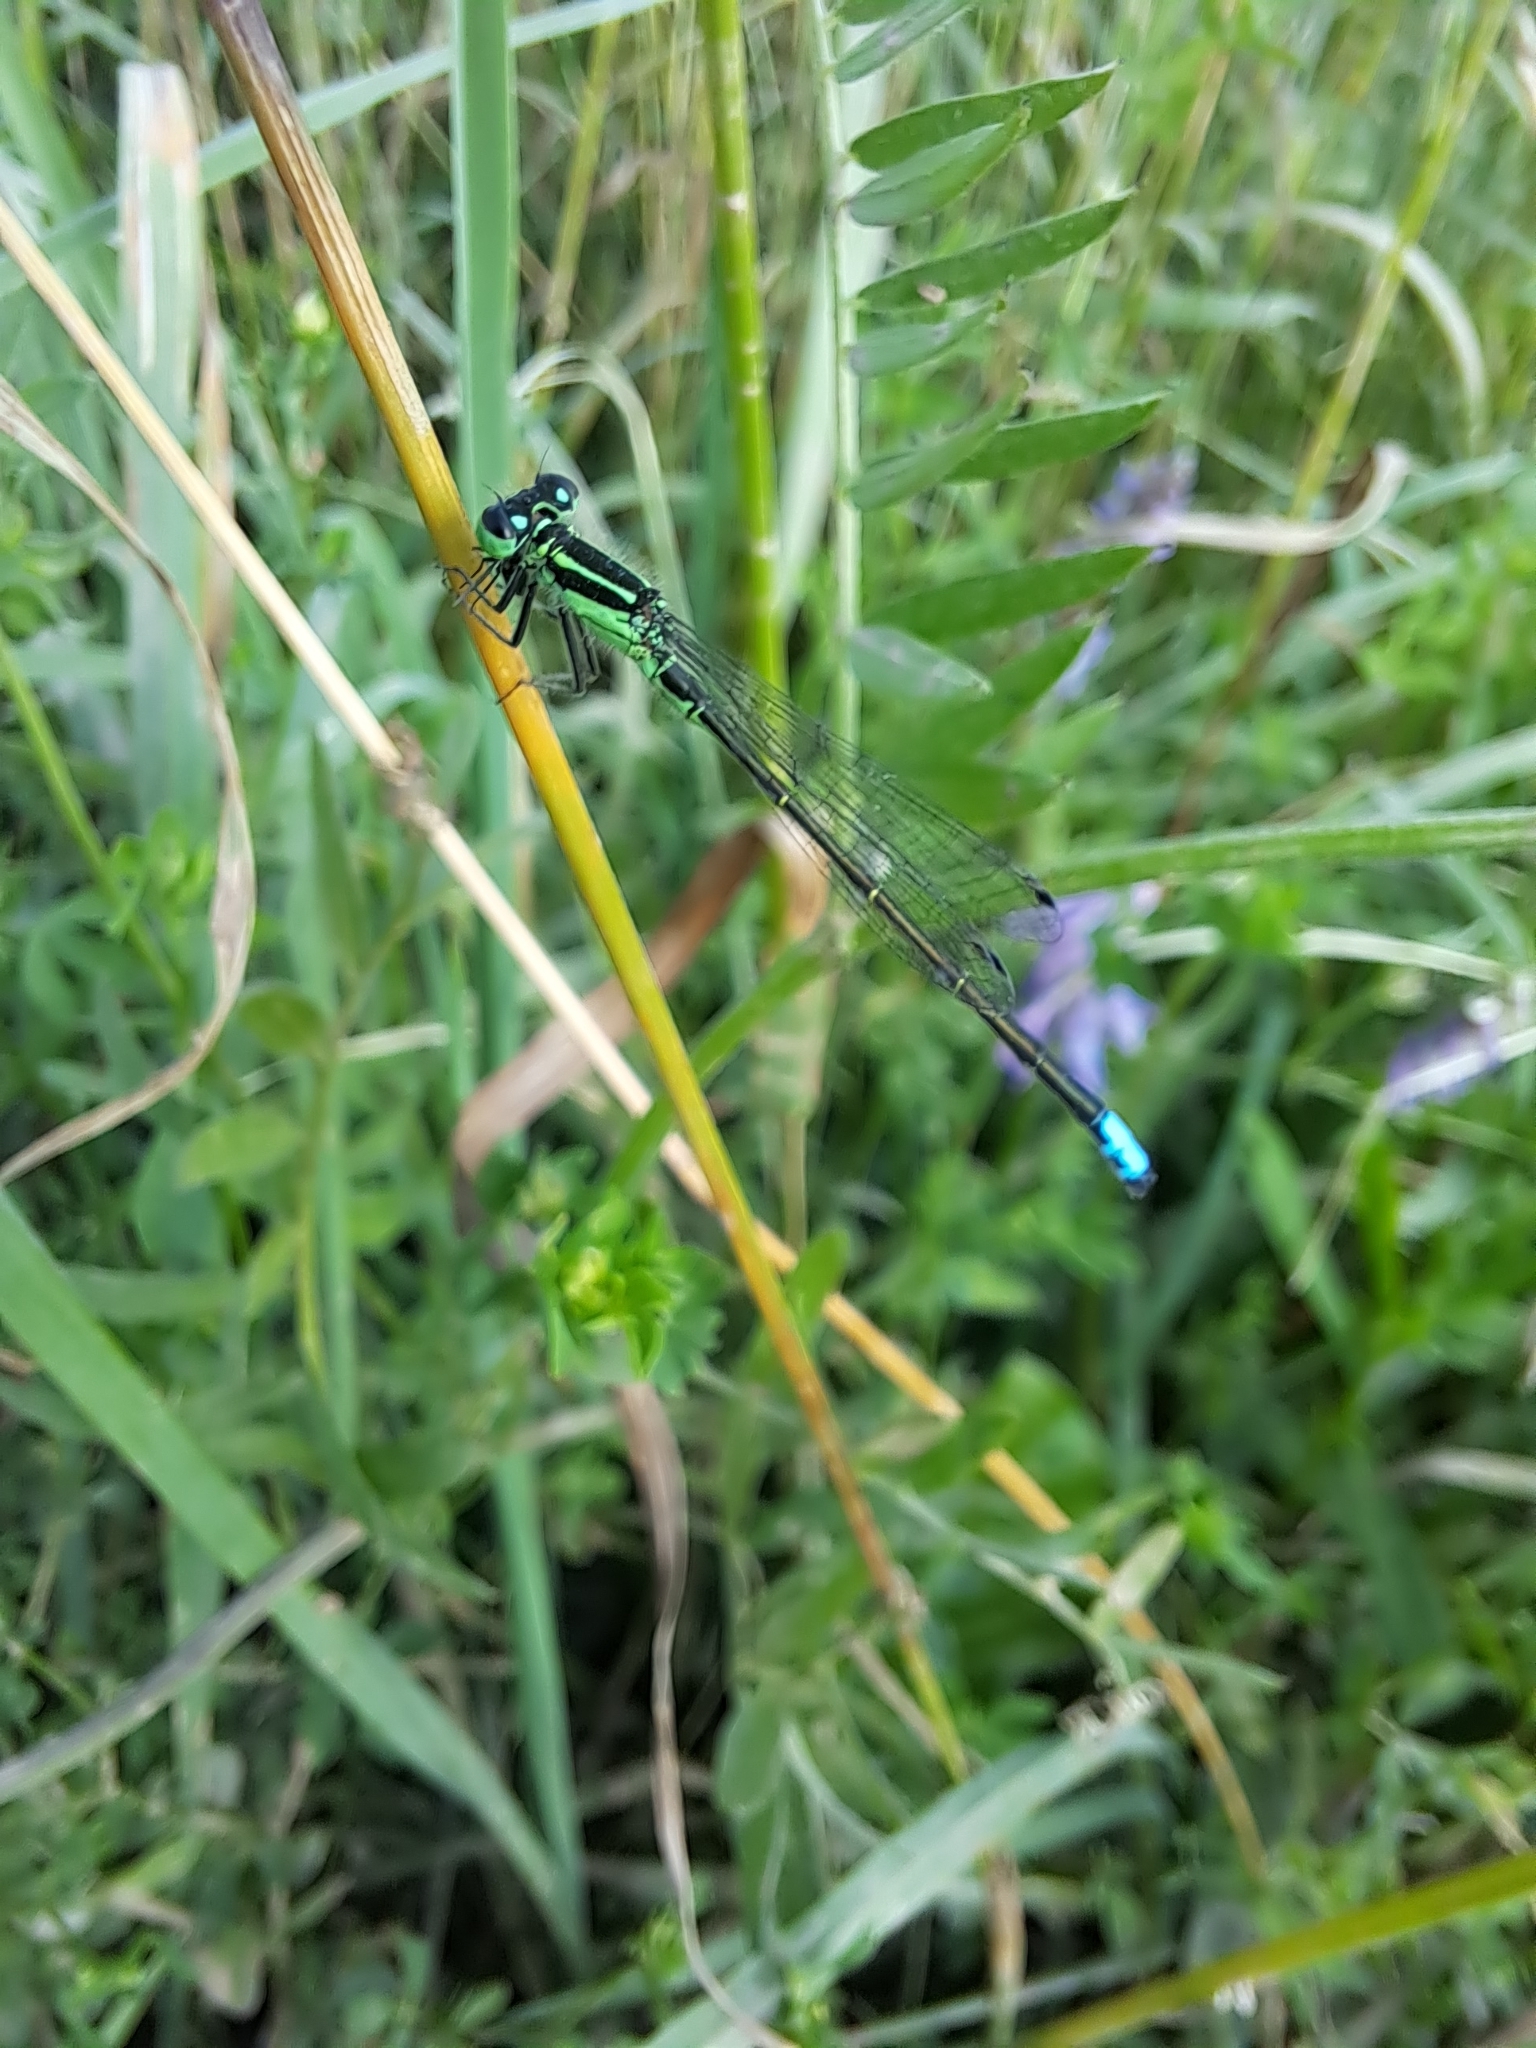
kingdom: Animalia
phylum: Arthropoda
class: Insecta
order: Odonata
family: Coenagrionidae
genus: Ischnura
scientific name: Ischnura verticalis
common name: Eastern forktail
